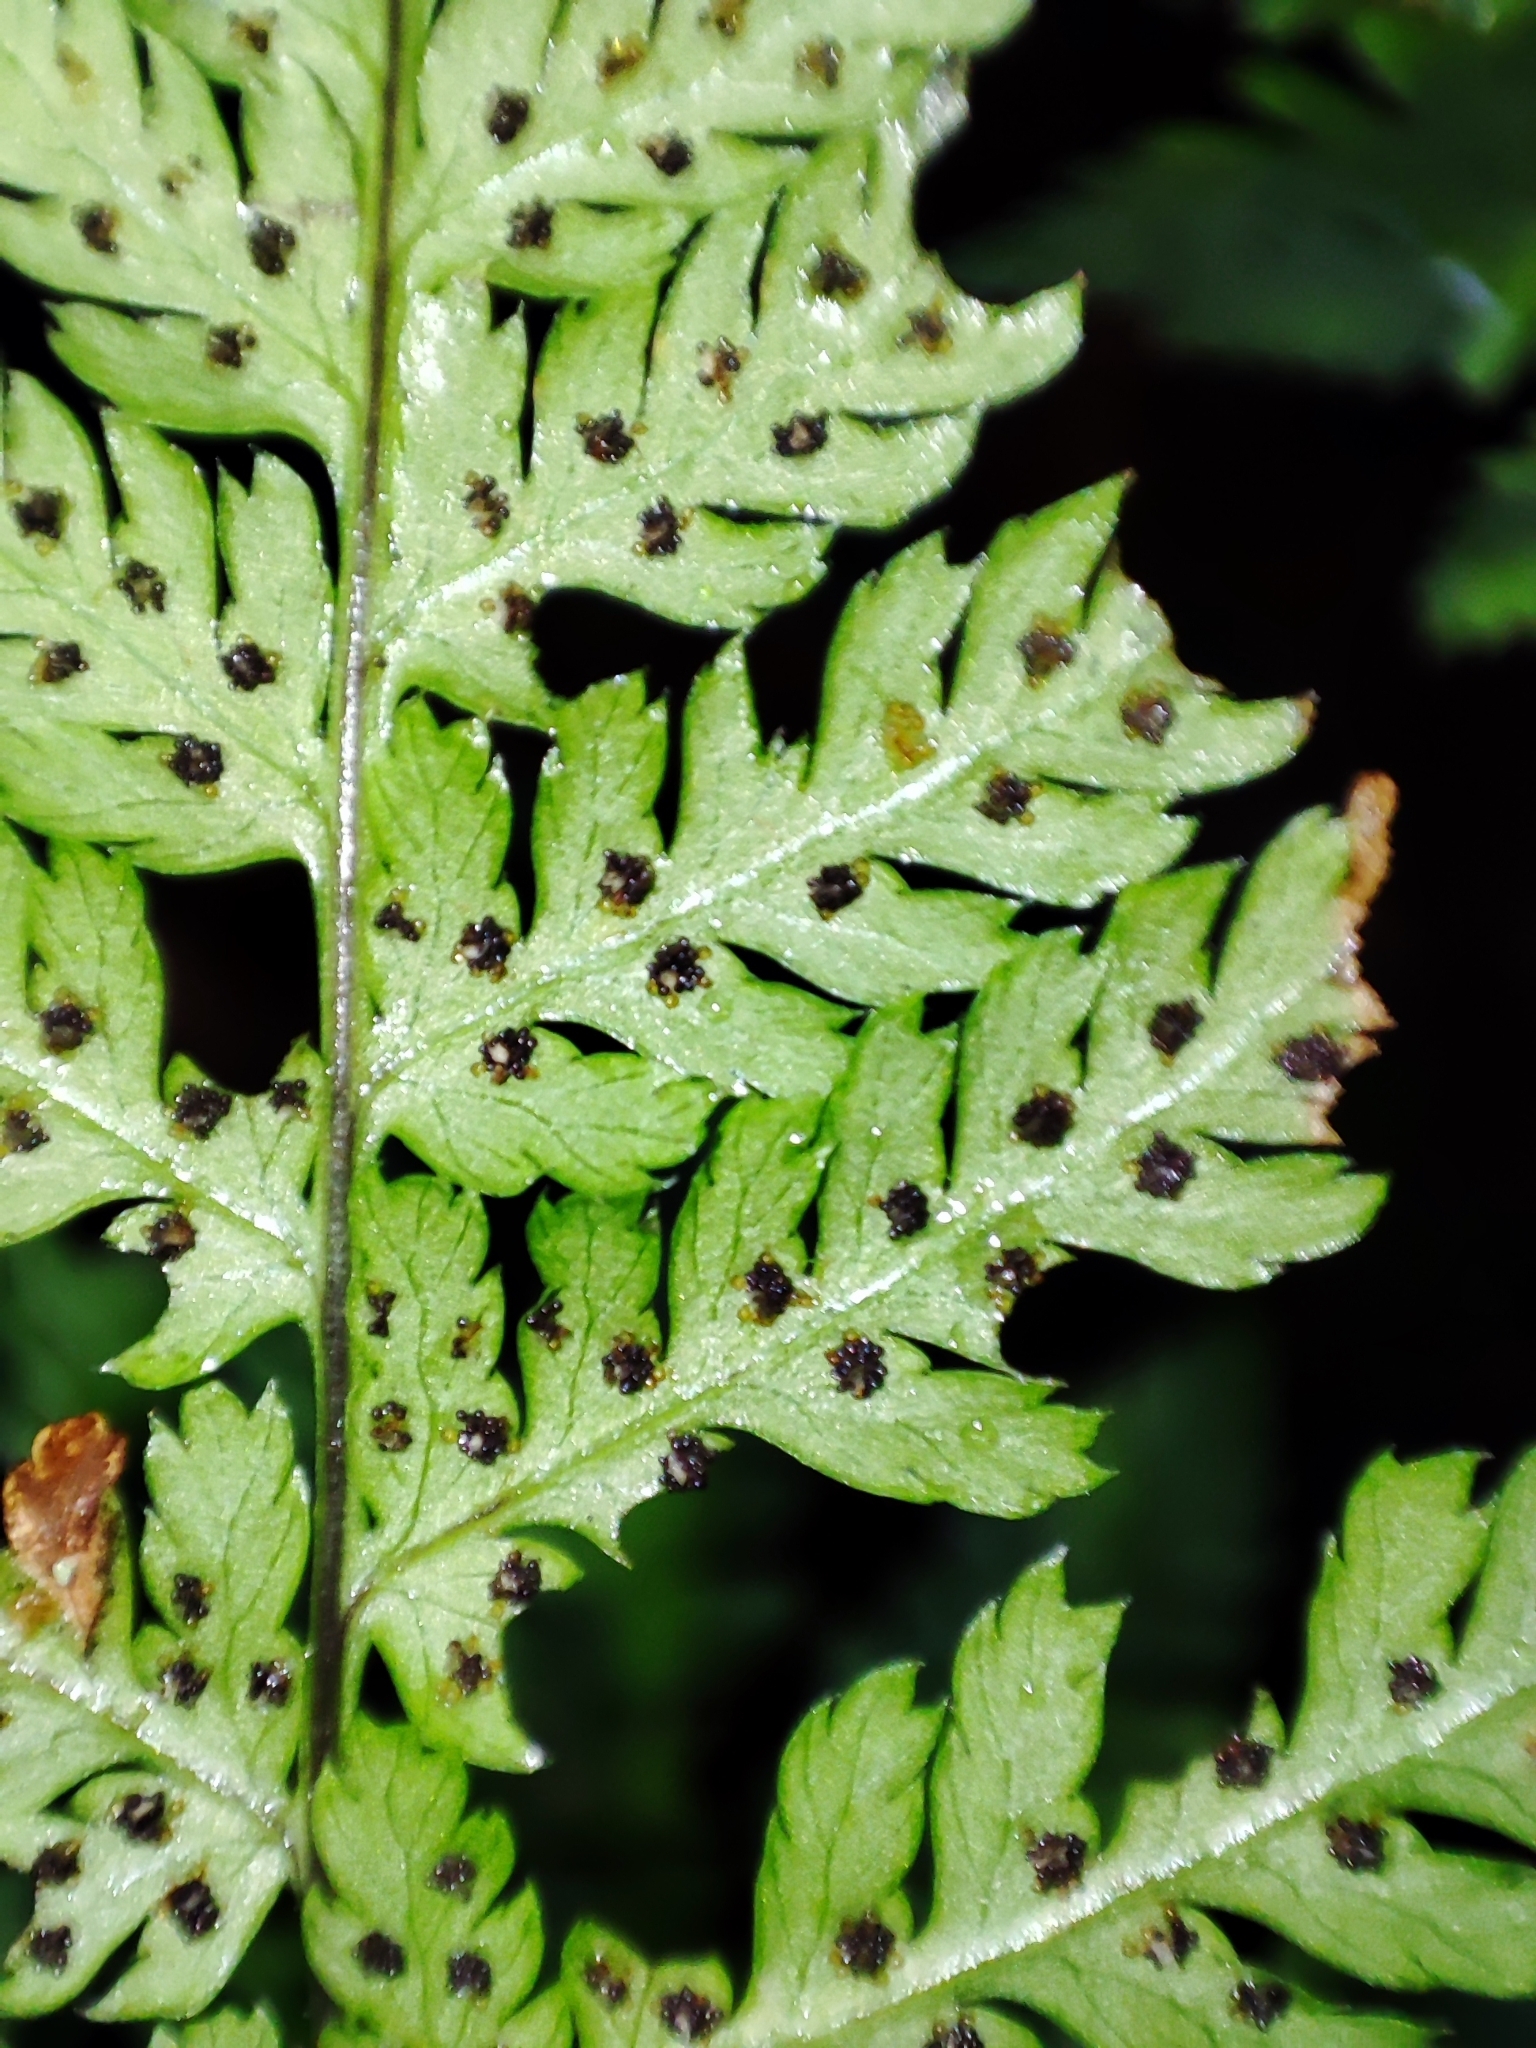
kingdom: Plantae
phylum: Tracheophyta
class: Polypodiopsida
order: Polypodiales
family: Dryopteridaceae
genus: Dryopteris
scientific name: Dryopteris carthusiana
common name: Narrow buckler-fern
